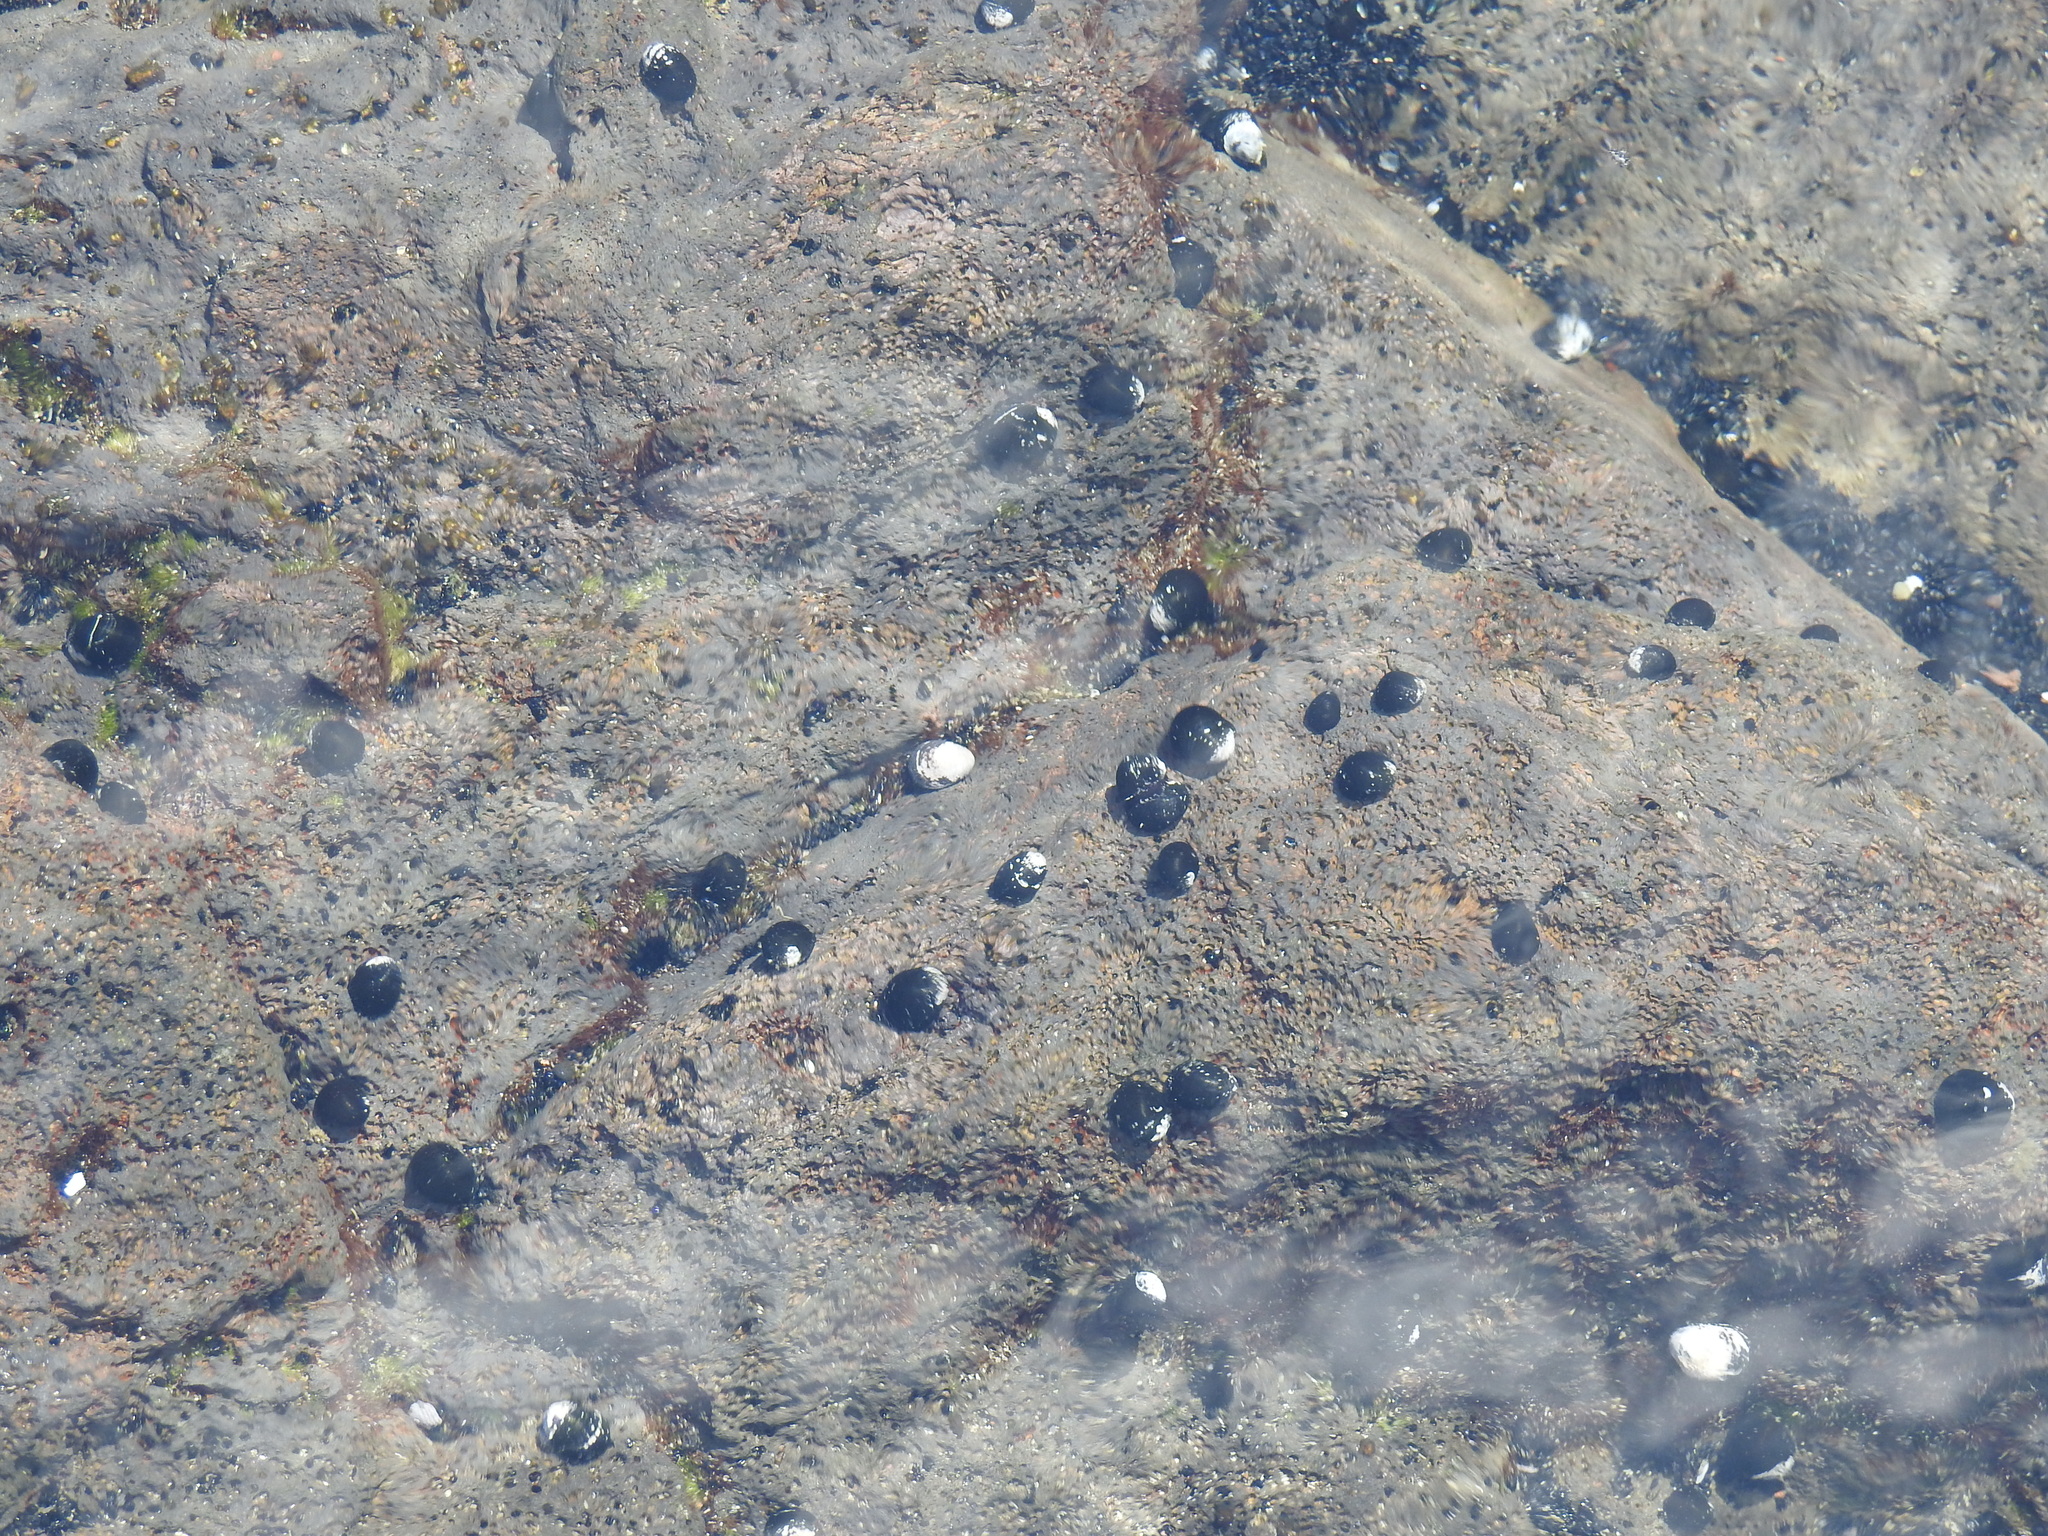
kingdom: Animalia
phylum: Mollusca
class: Gastropoda
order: Cycloneritida
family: Neritidae
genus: Nerita
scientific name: Nerita picea
